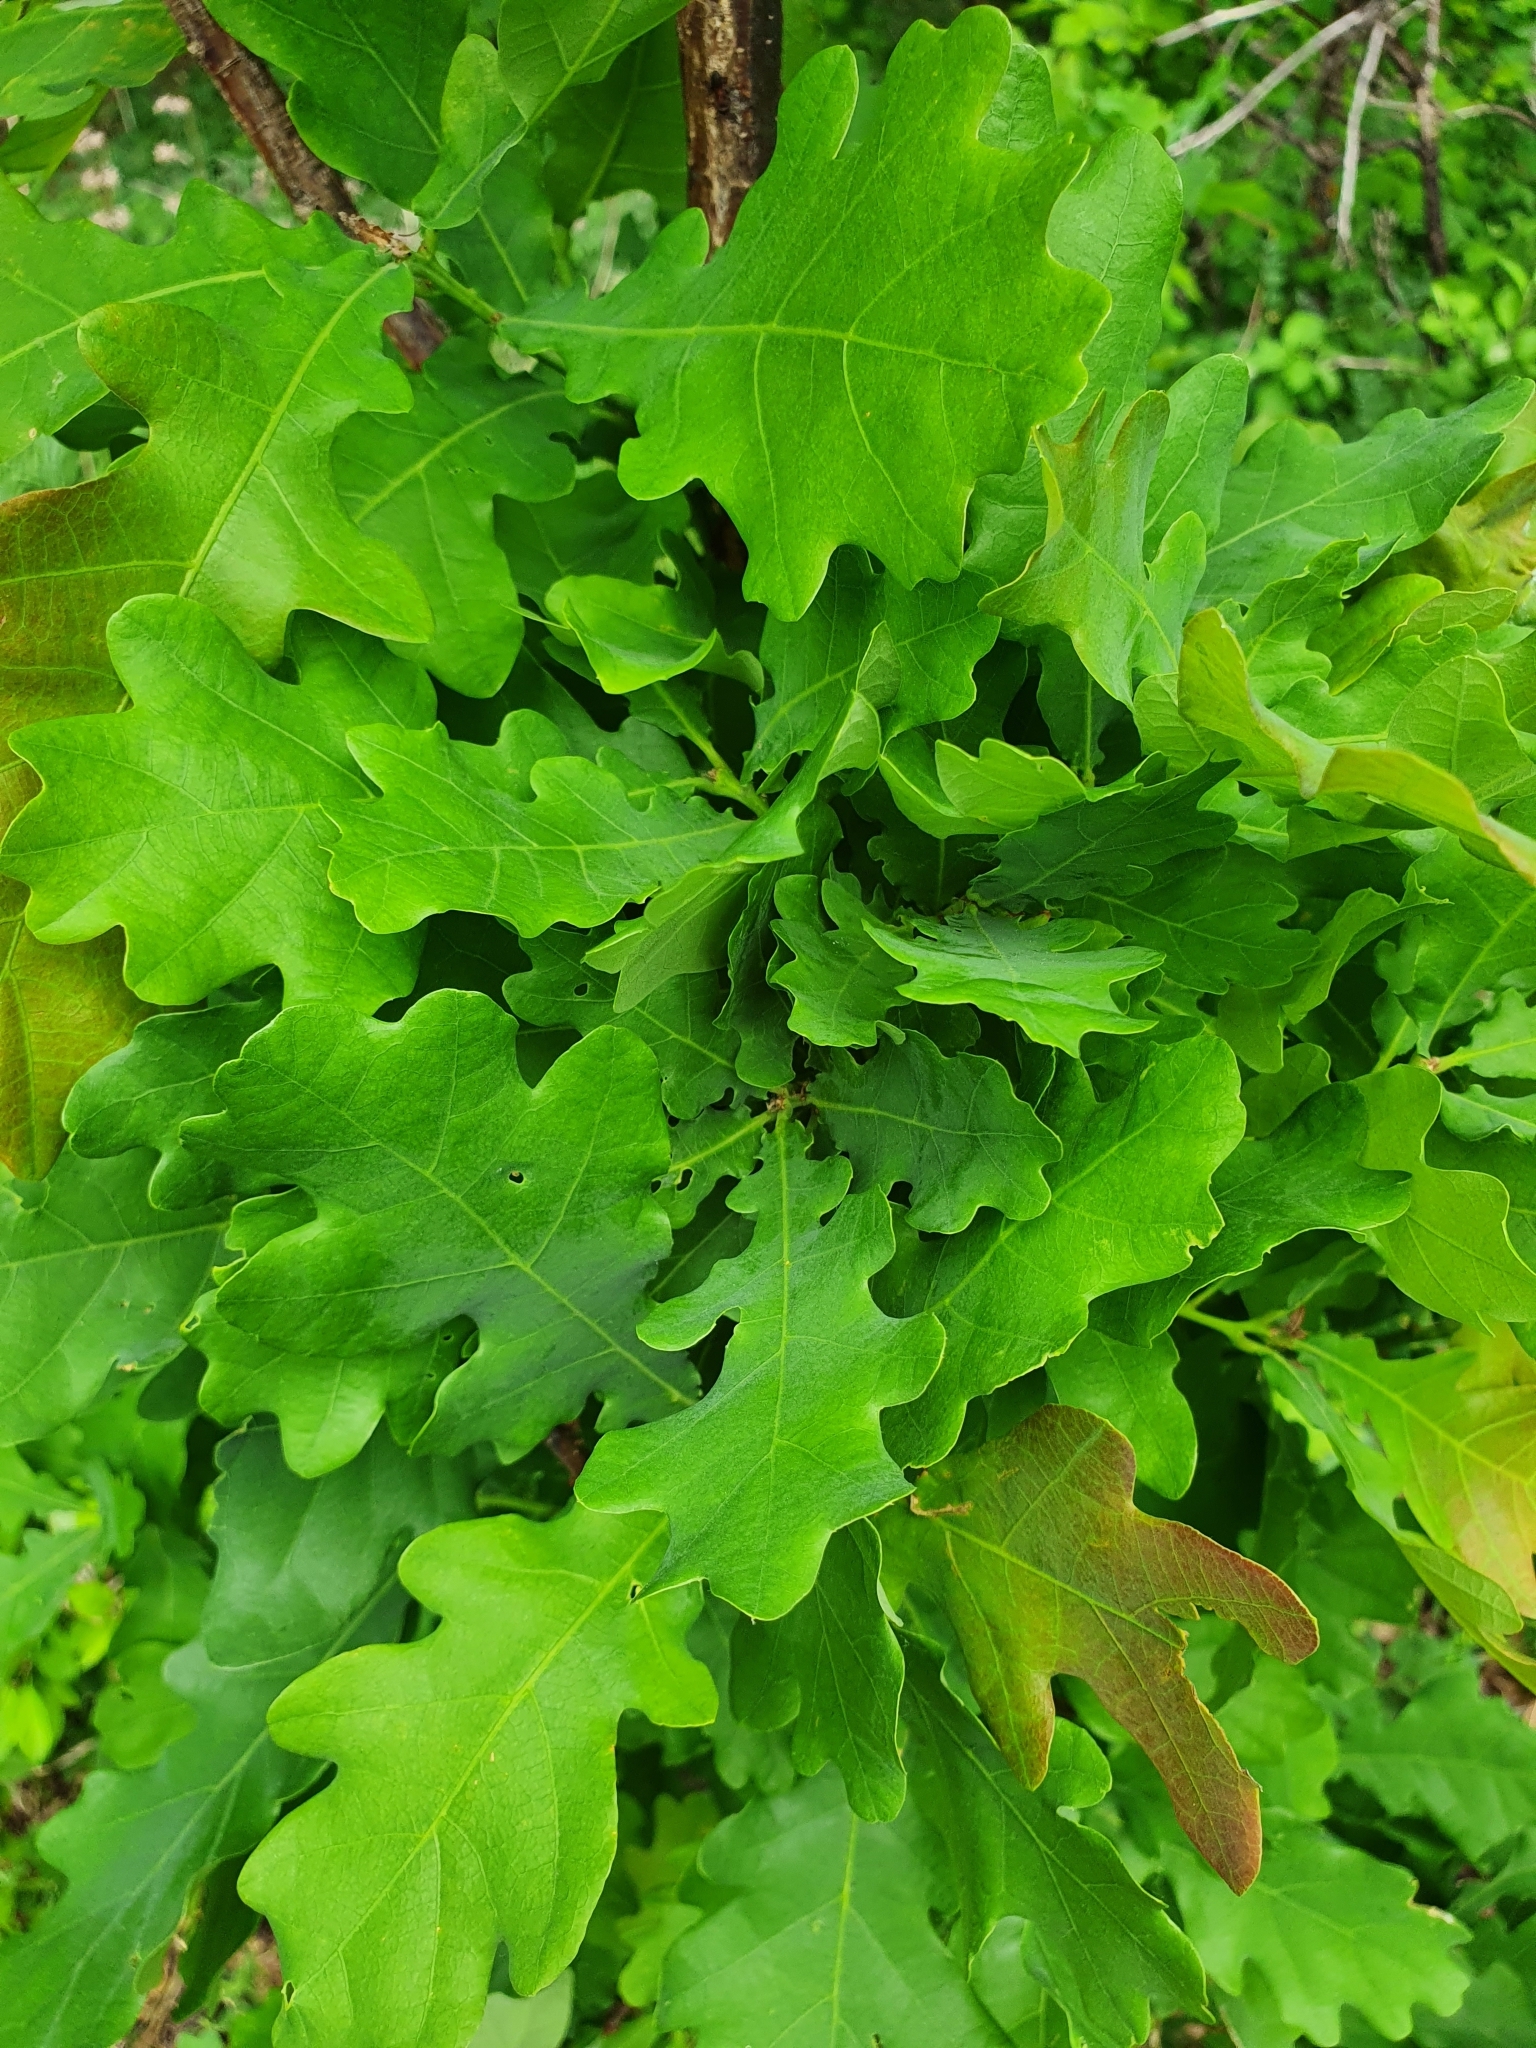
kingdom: Plantae
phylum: Tracheophyta
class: Magnoliopsida
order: Fagales
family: Fagaceae
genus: Quercus
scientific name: Quercus robur
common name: Pedunculate oak
